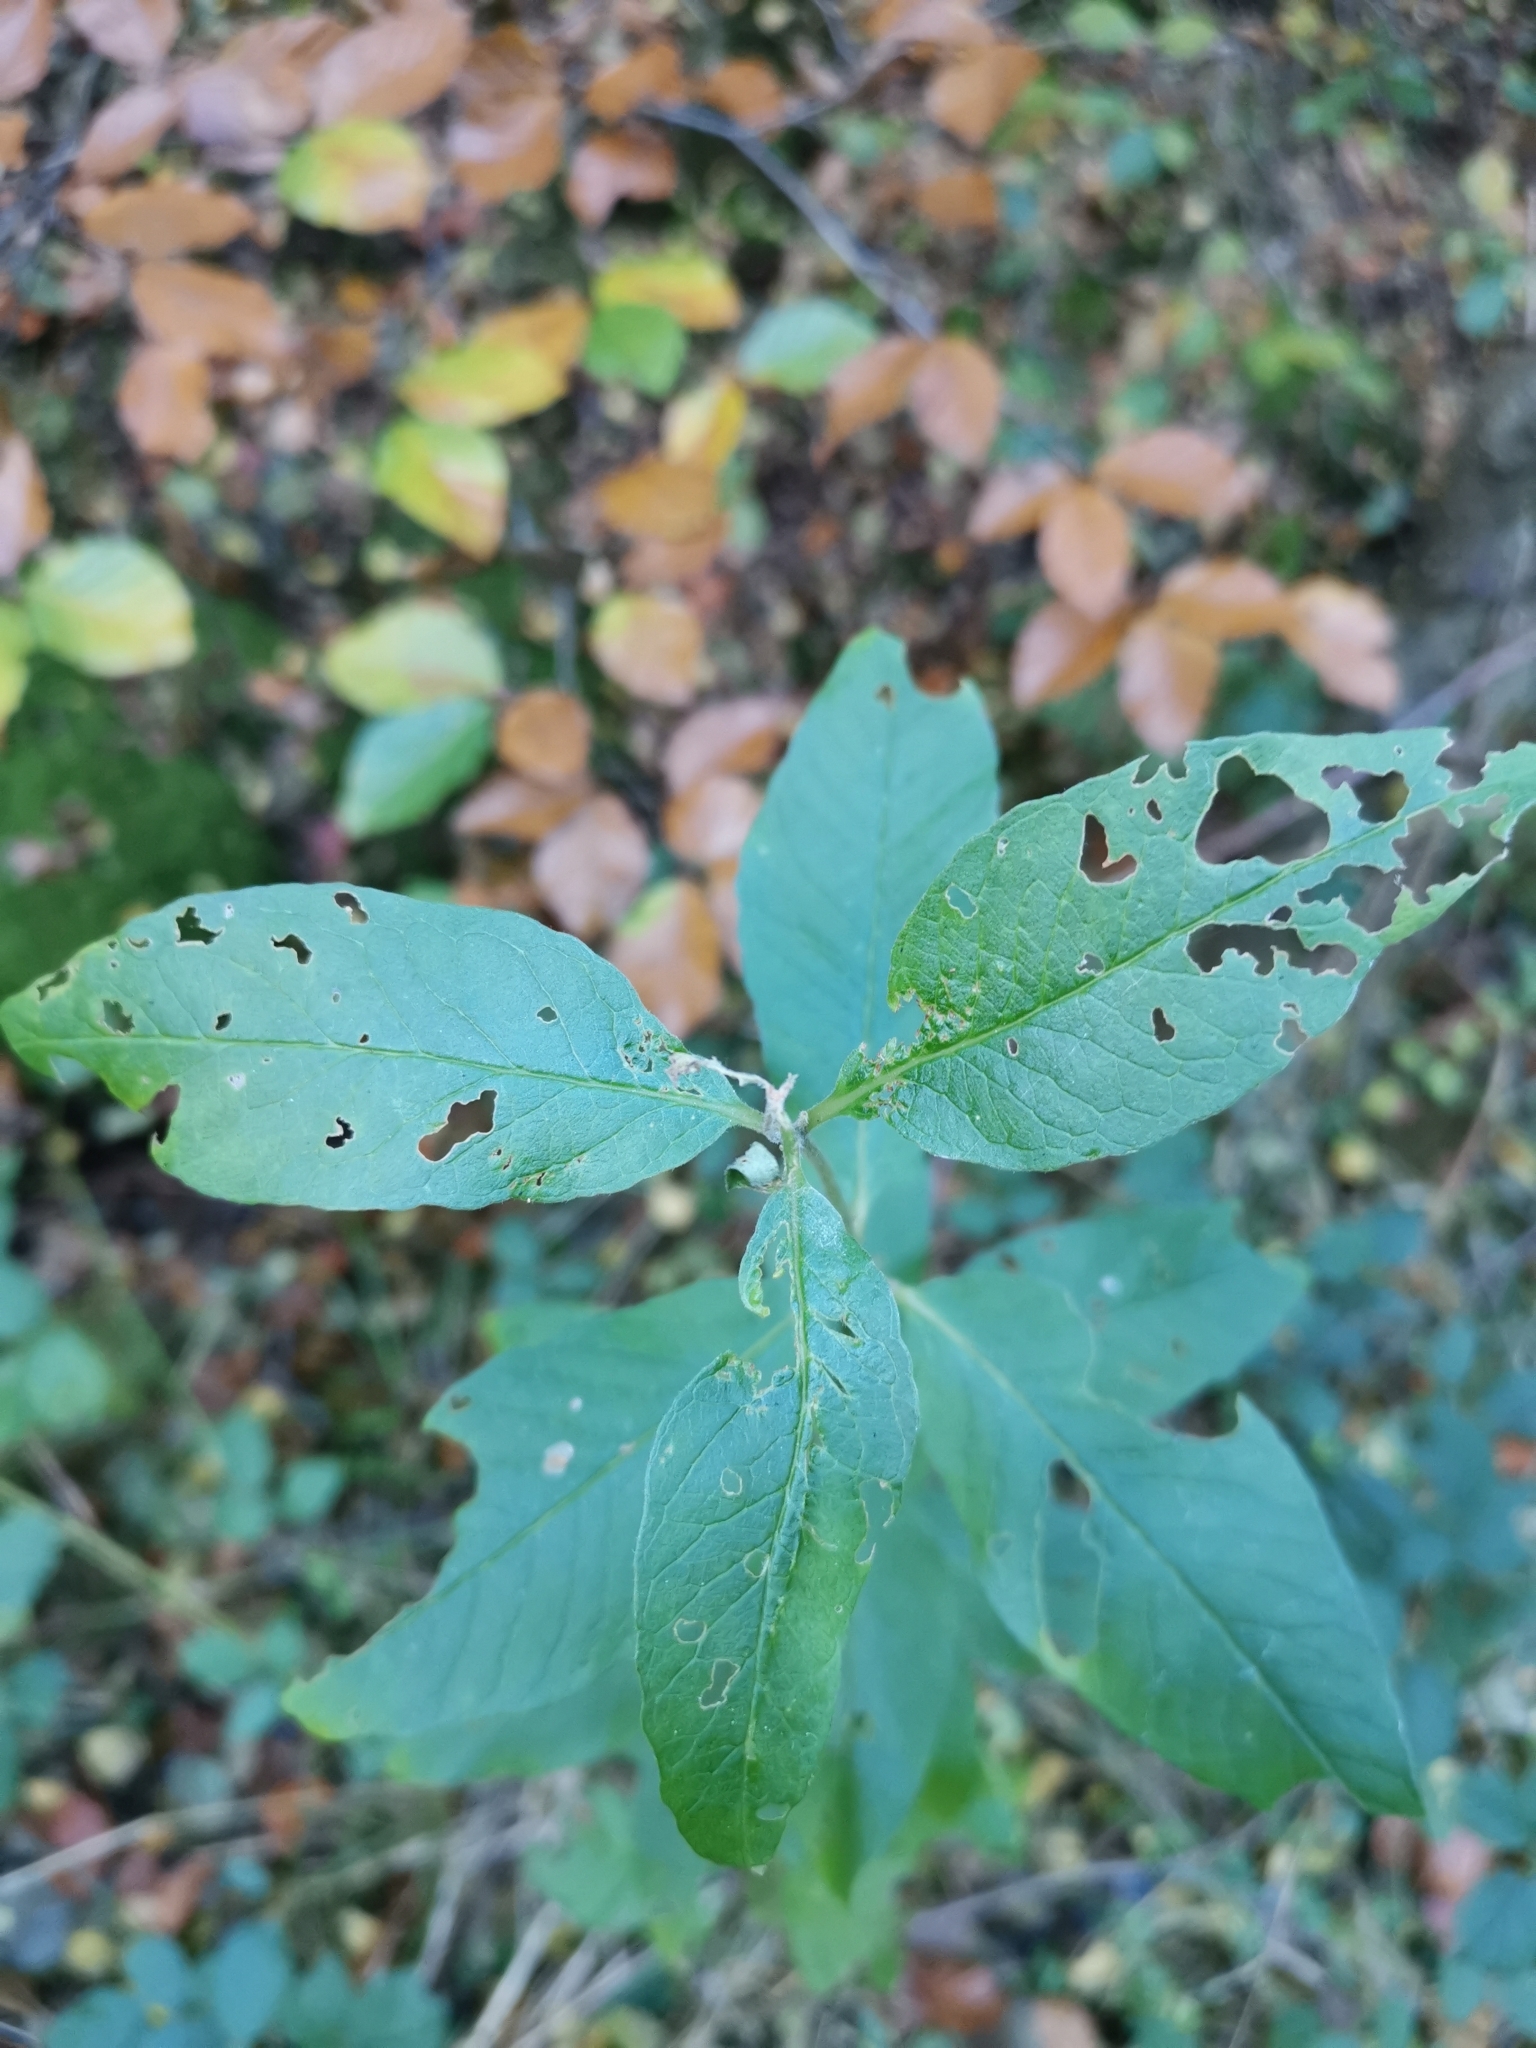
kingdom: Plantae
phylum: Tracheophyta
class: Magnoliopsida
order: Ericales
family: Primulaceae
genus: Lysimachia
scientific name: Lysimachia vulgaris
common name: Yellow loosestrife
